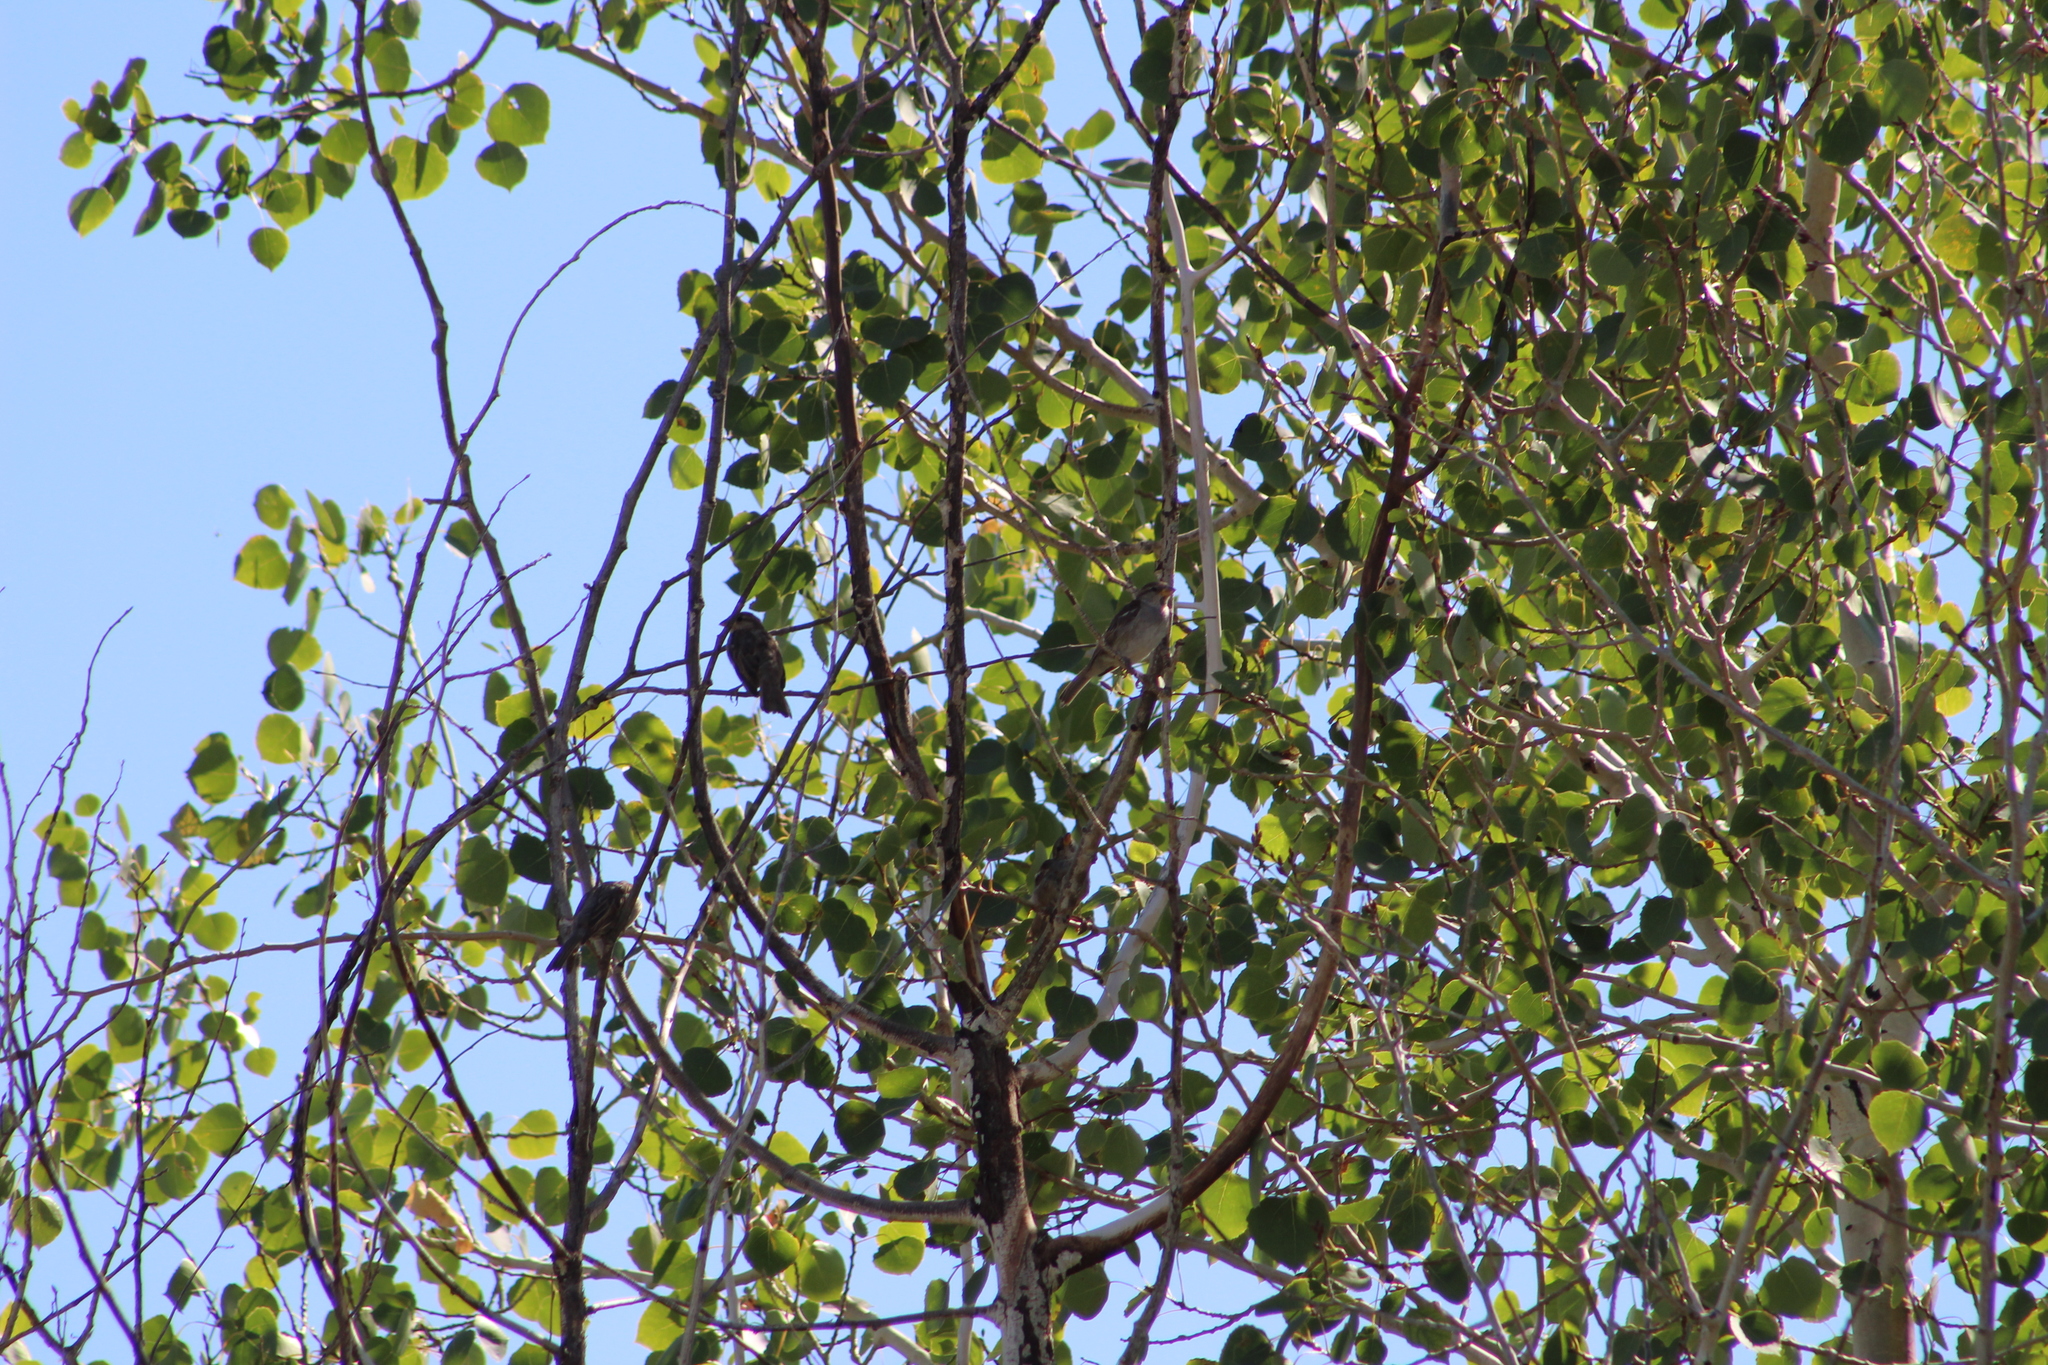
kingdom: Animalia
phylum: Chordata
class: Aves
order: Passeriformes
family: Passeridae
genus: Passer
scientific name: Passer domesticus
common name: House sparrow
